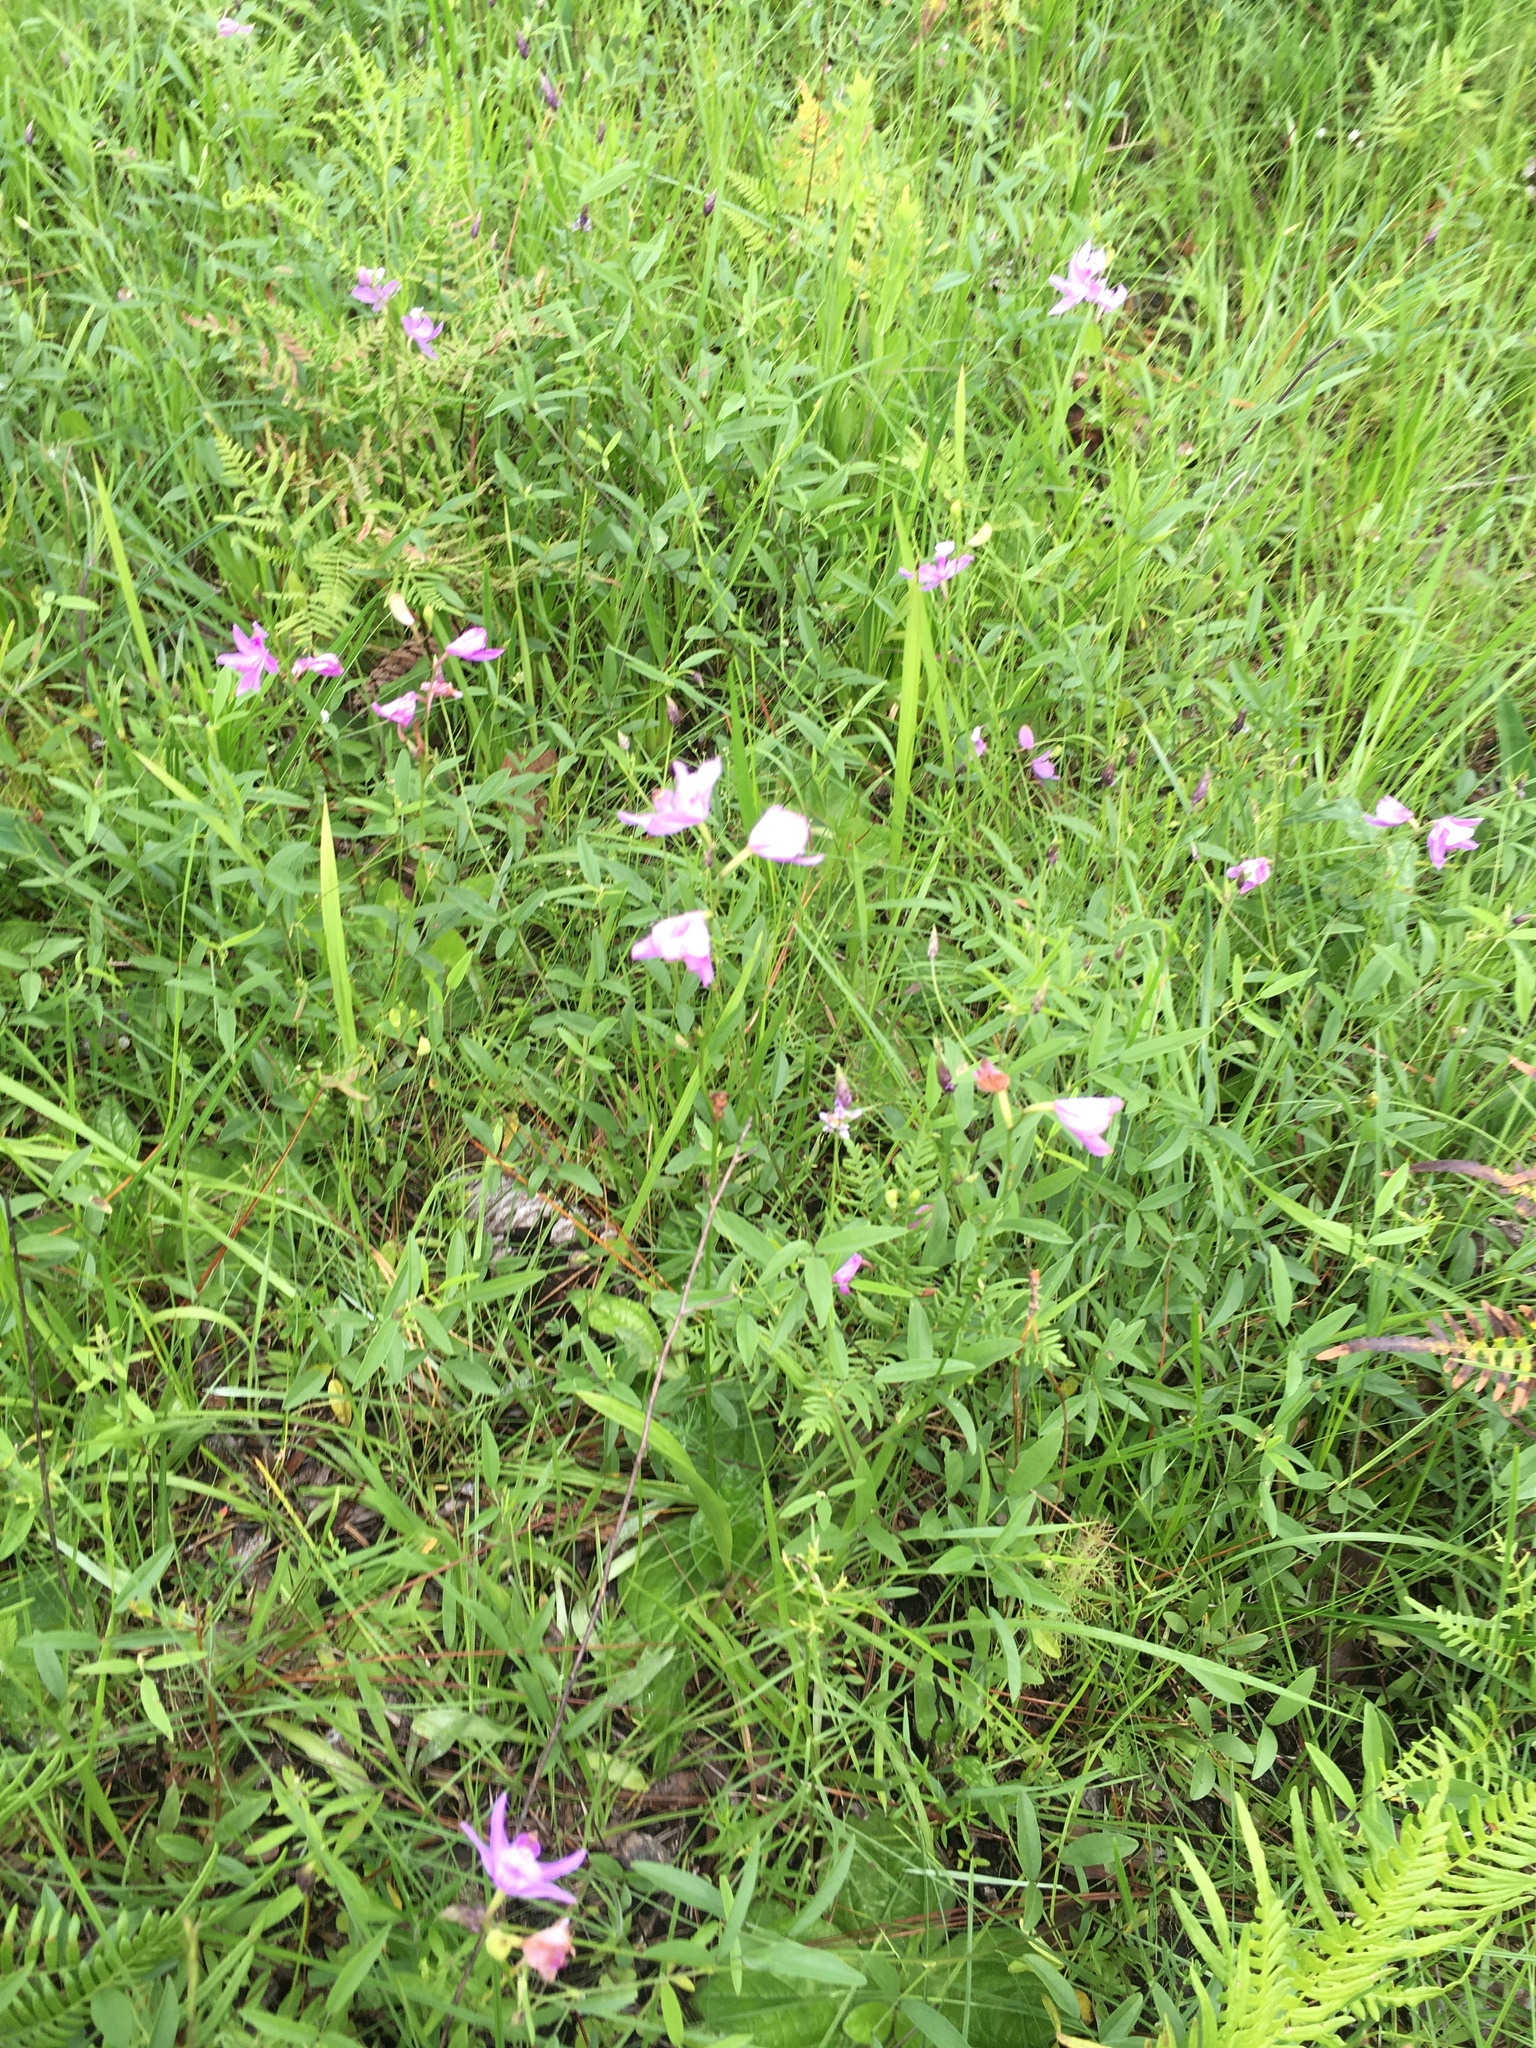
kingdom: Plantae
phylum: Tracheophyta
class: Liliopsida
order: Asparagales
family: Orchidaceae
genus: Calopogon
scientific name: Calopogon tuberosus
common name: Grass-pink
